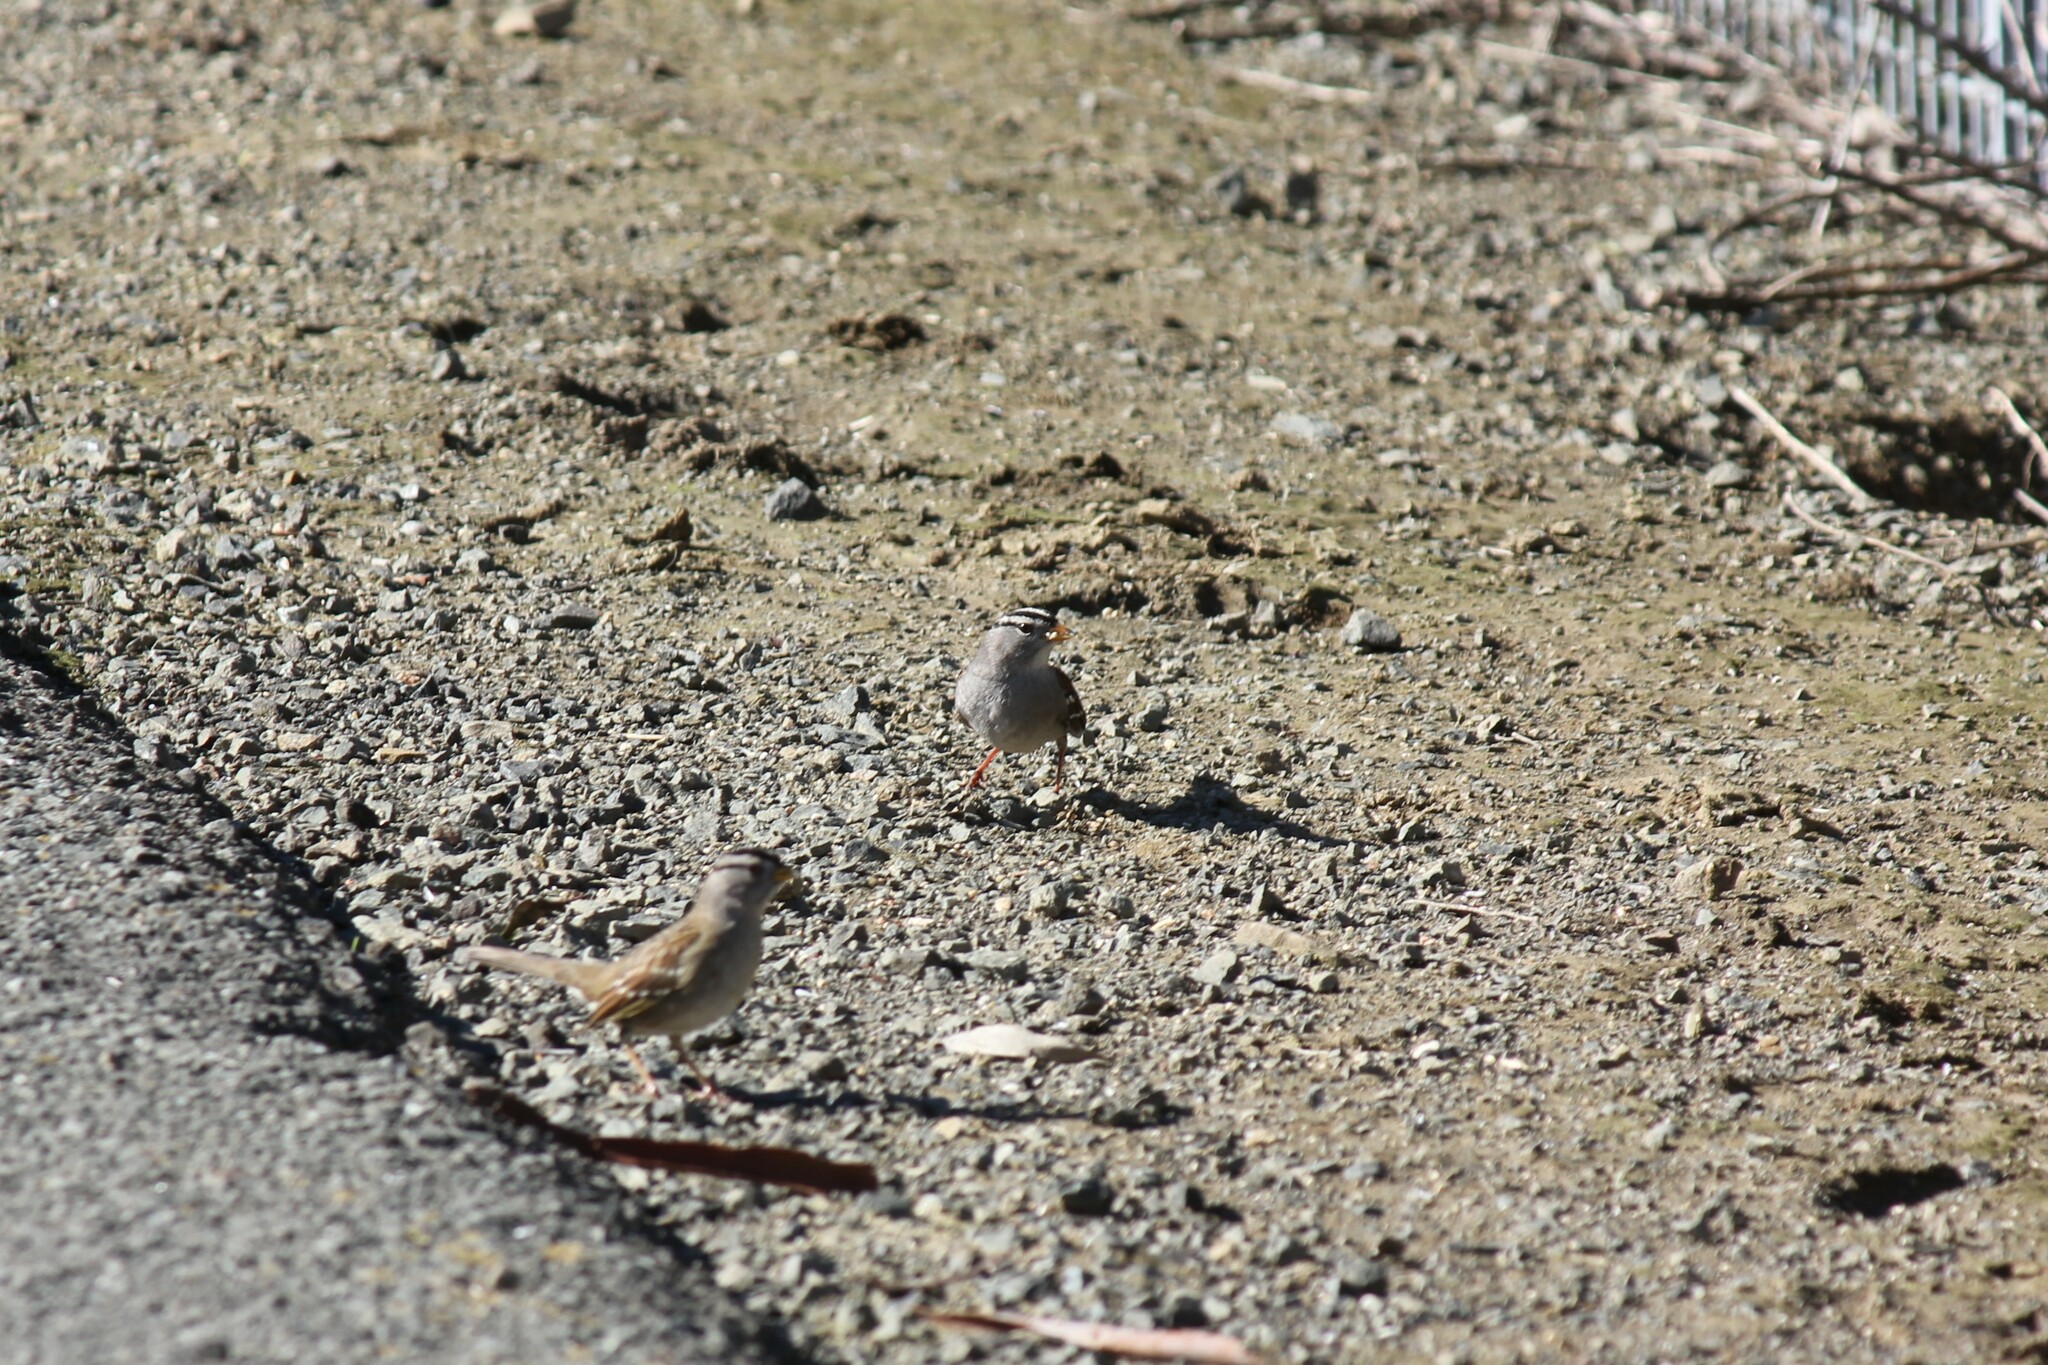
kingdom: Animalia
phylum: Chordata
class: Aves
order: Passeriformes
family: Passerellidae
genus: Zonotrichia
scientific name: Zonotrichia leucophrys
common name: White-crowned sparrow
